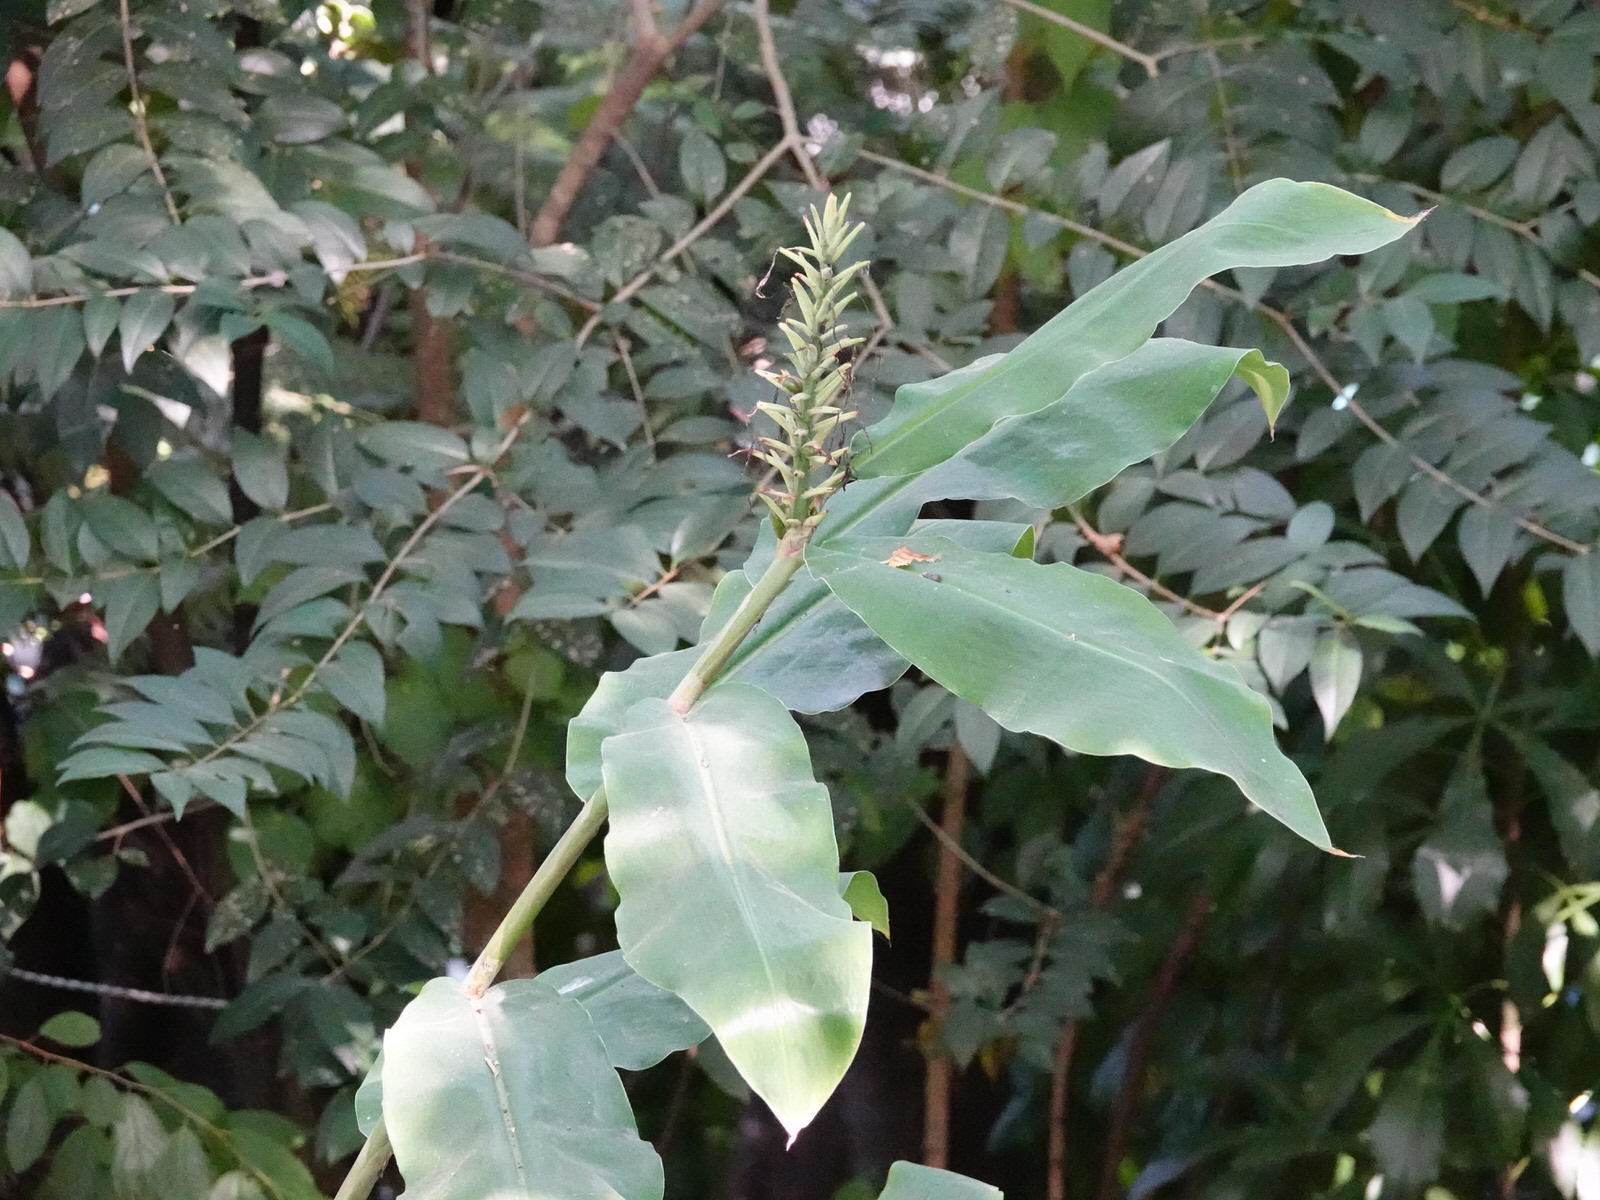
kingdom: Plantae
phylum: Tracheophyta
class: Liliopsida
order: Zingiberales
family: Zingiberaceae
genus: Hedychium
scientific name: Hedychium gardnerianum
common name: Himalayan ginger
